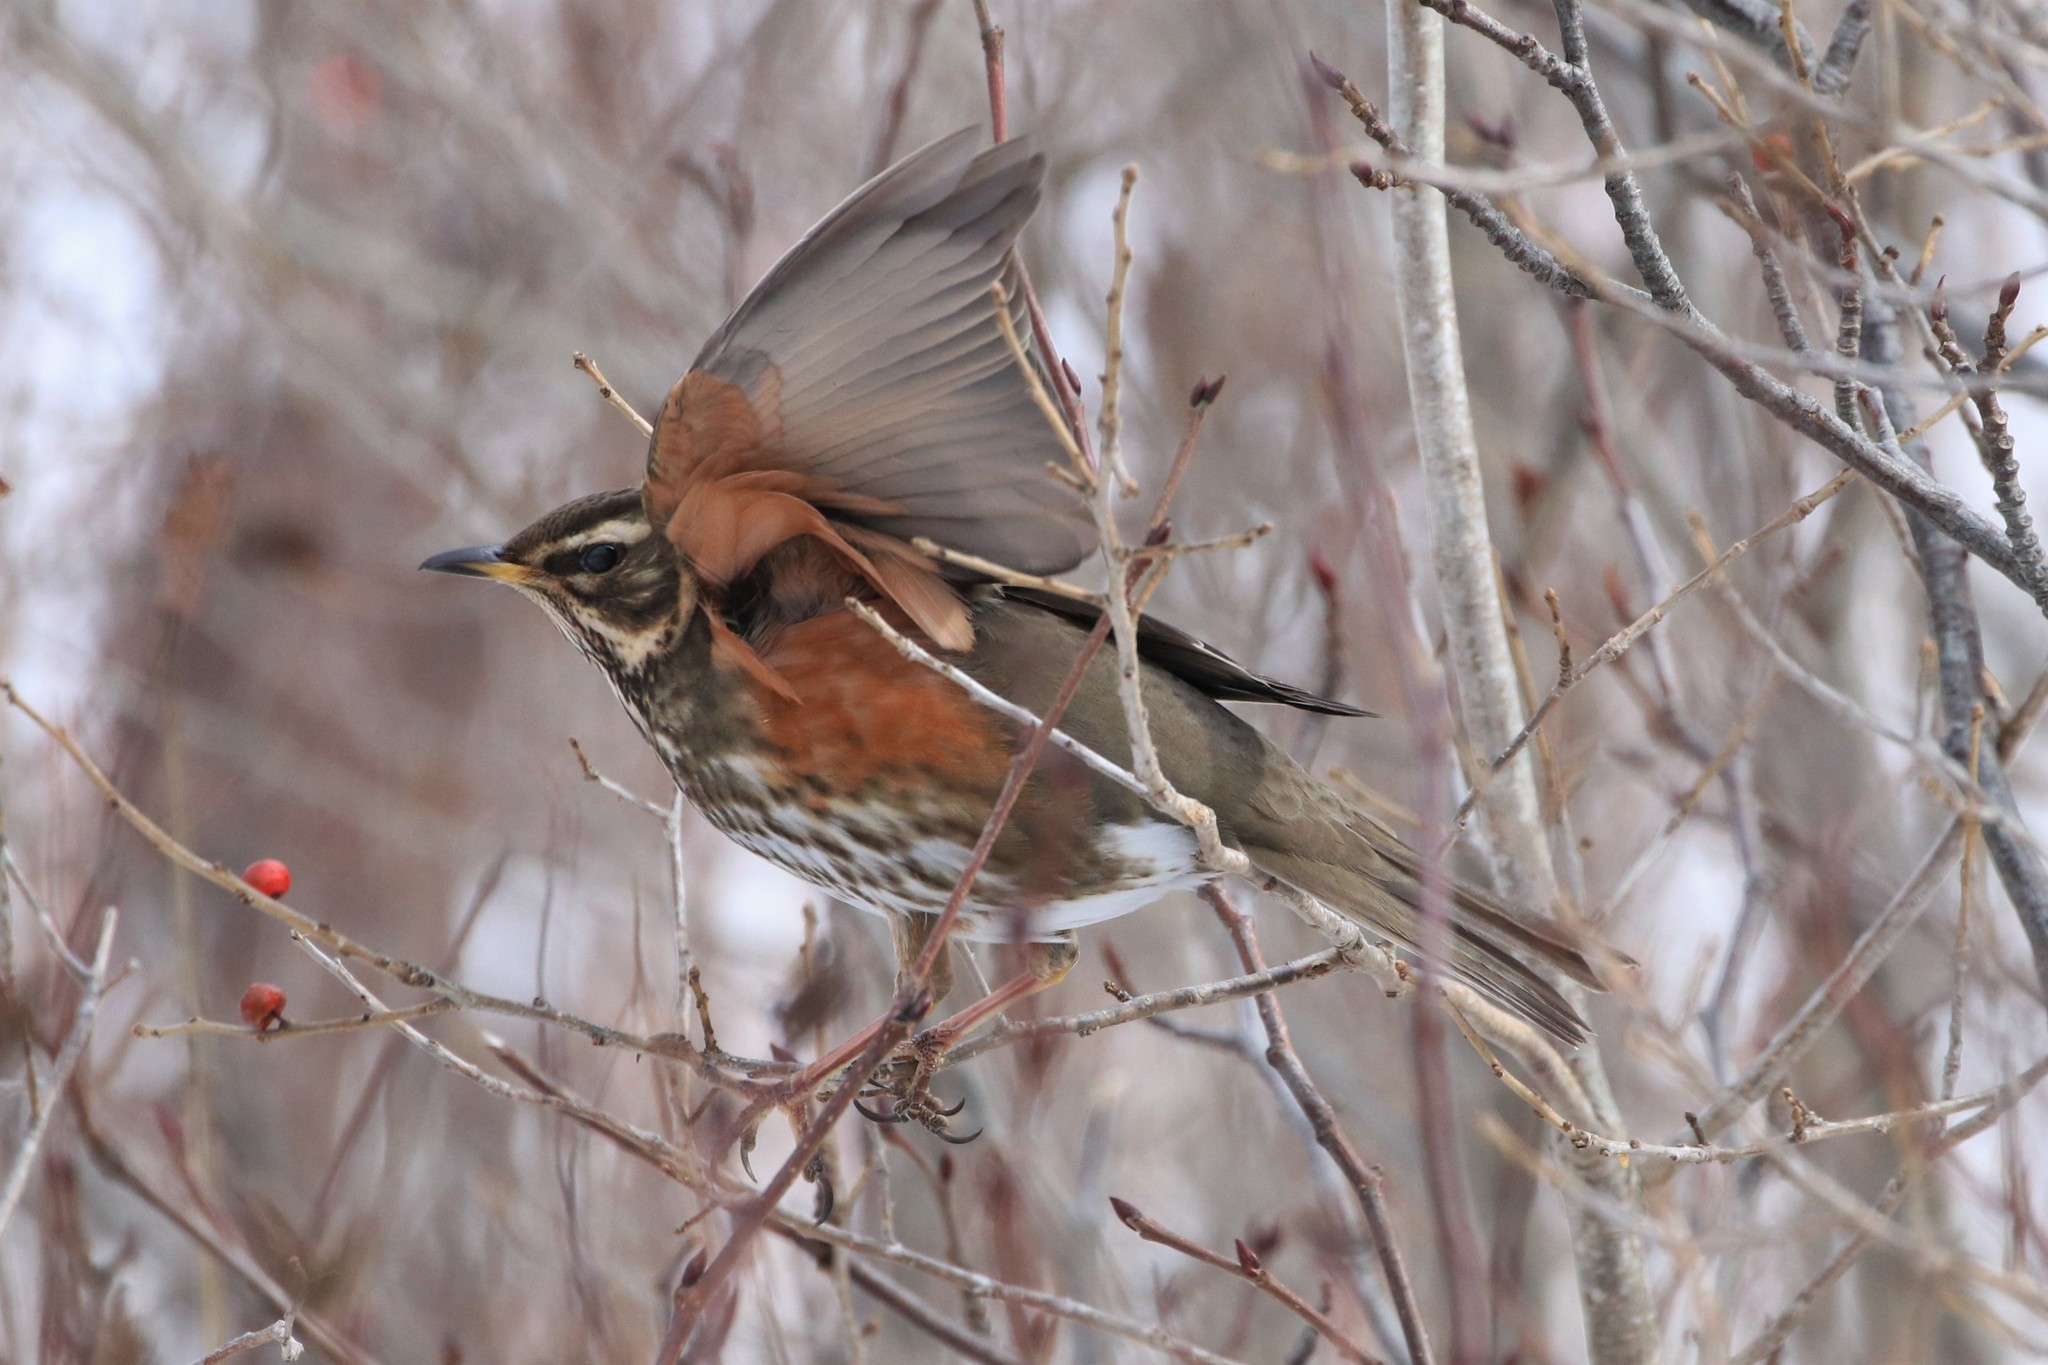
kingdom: Animalia
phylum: Chordata
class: Aves
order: Passeriformes
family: Turdidae
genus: Turdus
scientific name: Turdus iliacus
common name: Redwing
